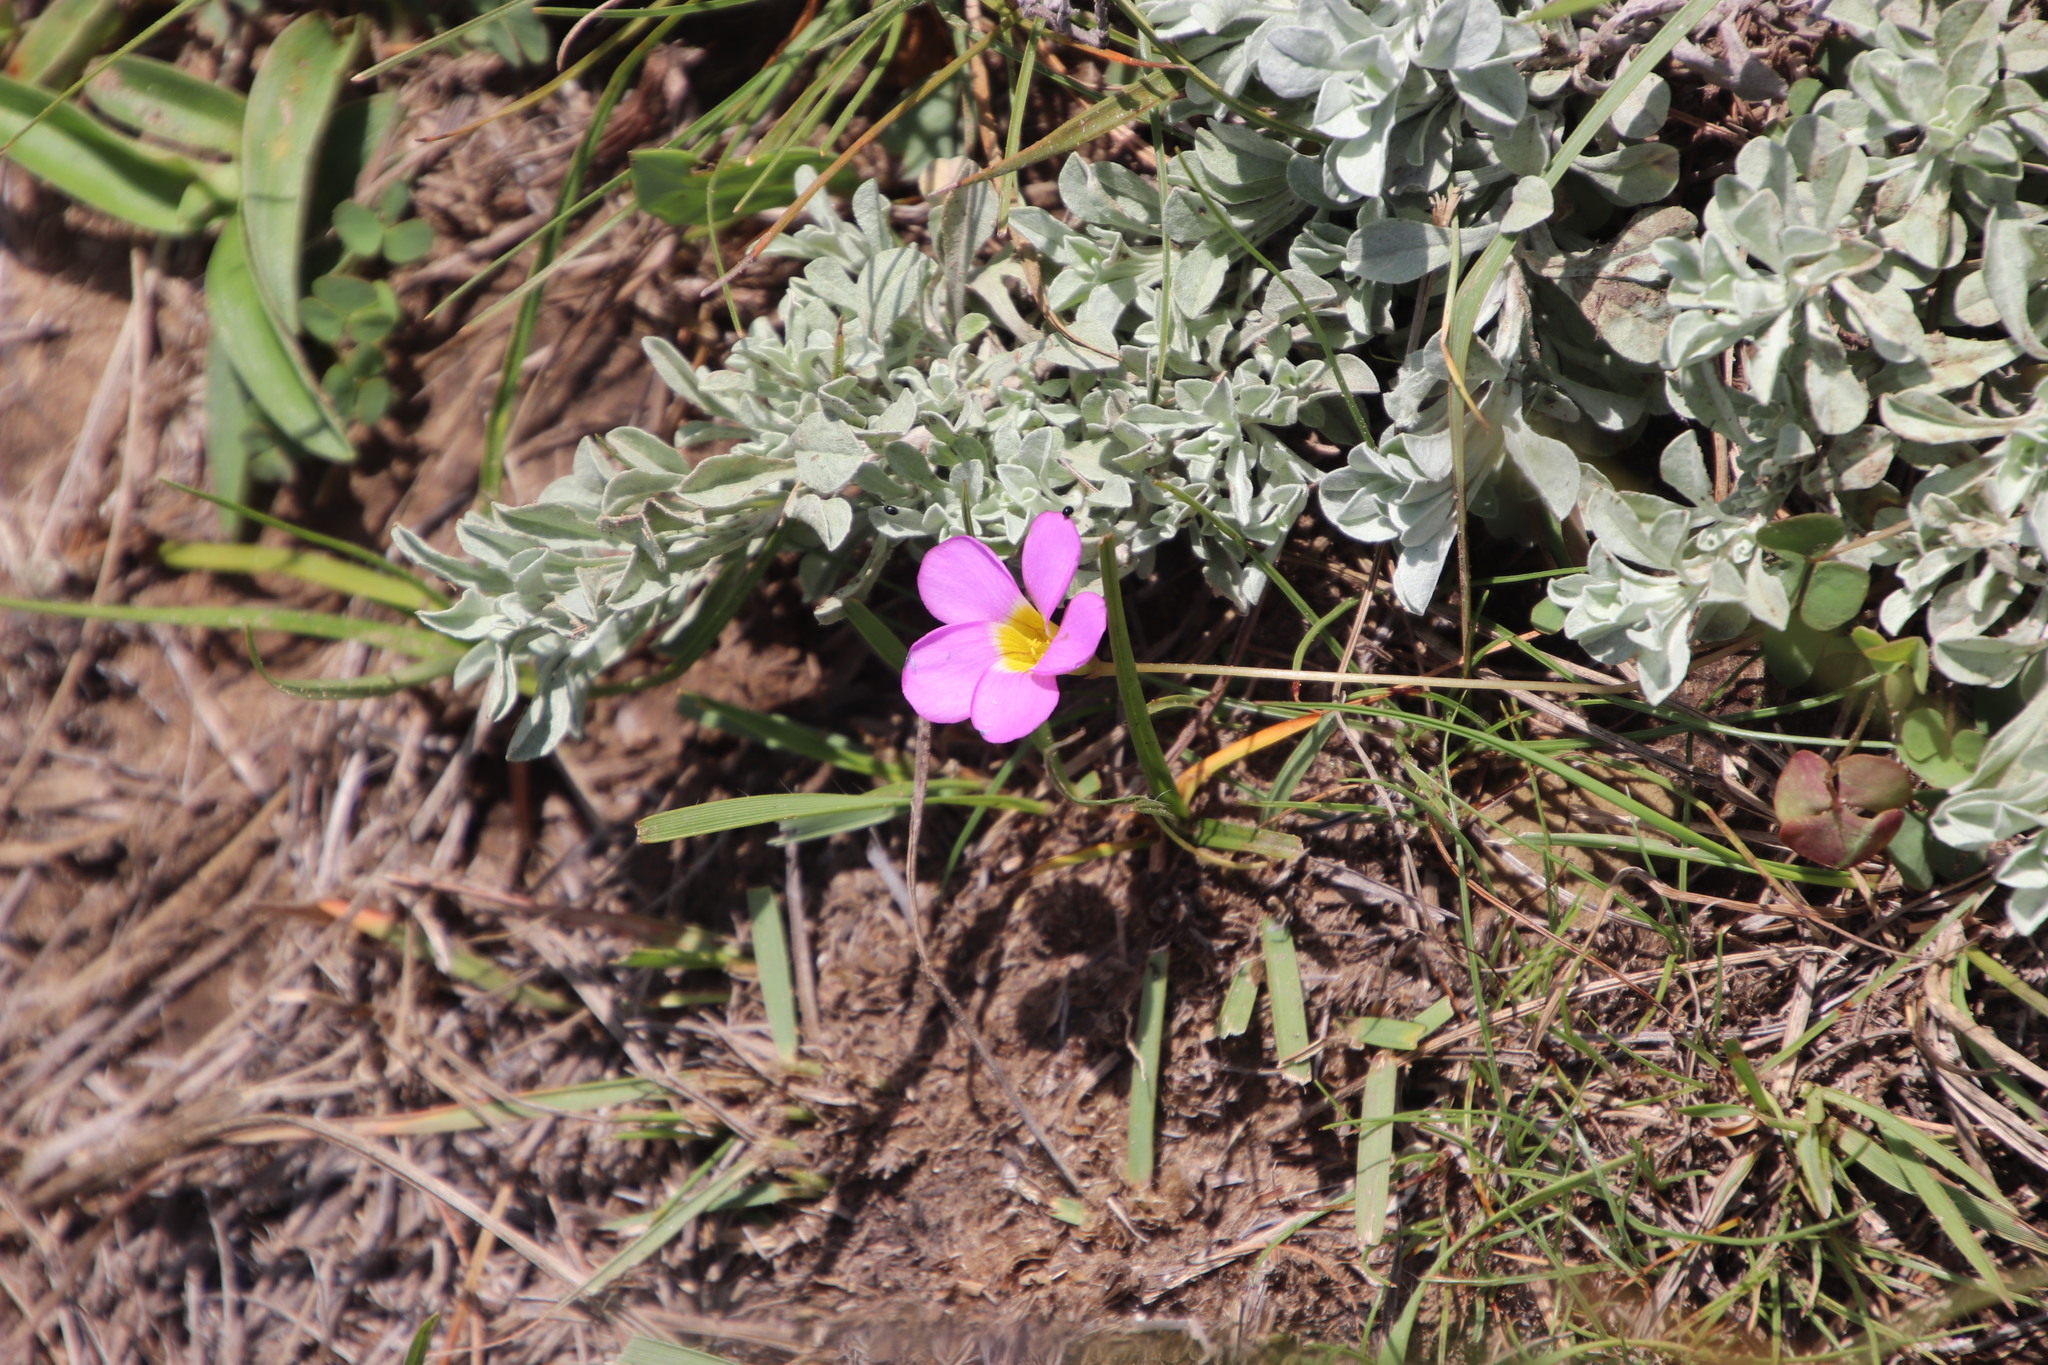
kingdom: Plantae
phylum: Tracheophyta
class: Magnoliopsida
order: Oxalidales
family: Oxalidaceae
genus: Oxalis
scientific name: Oxalis obliquifolia
